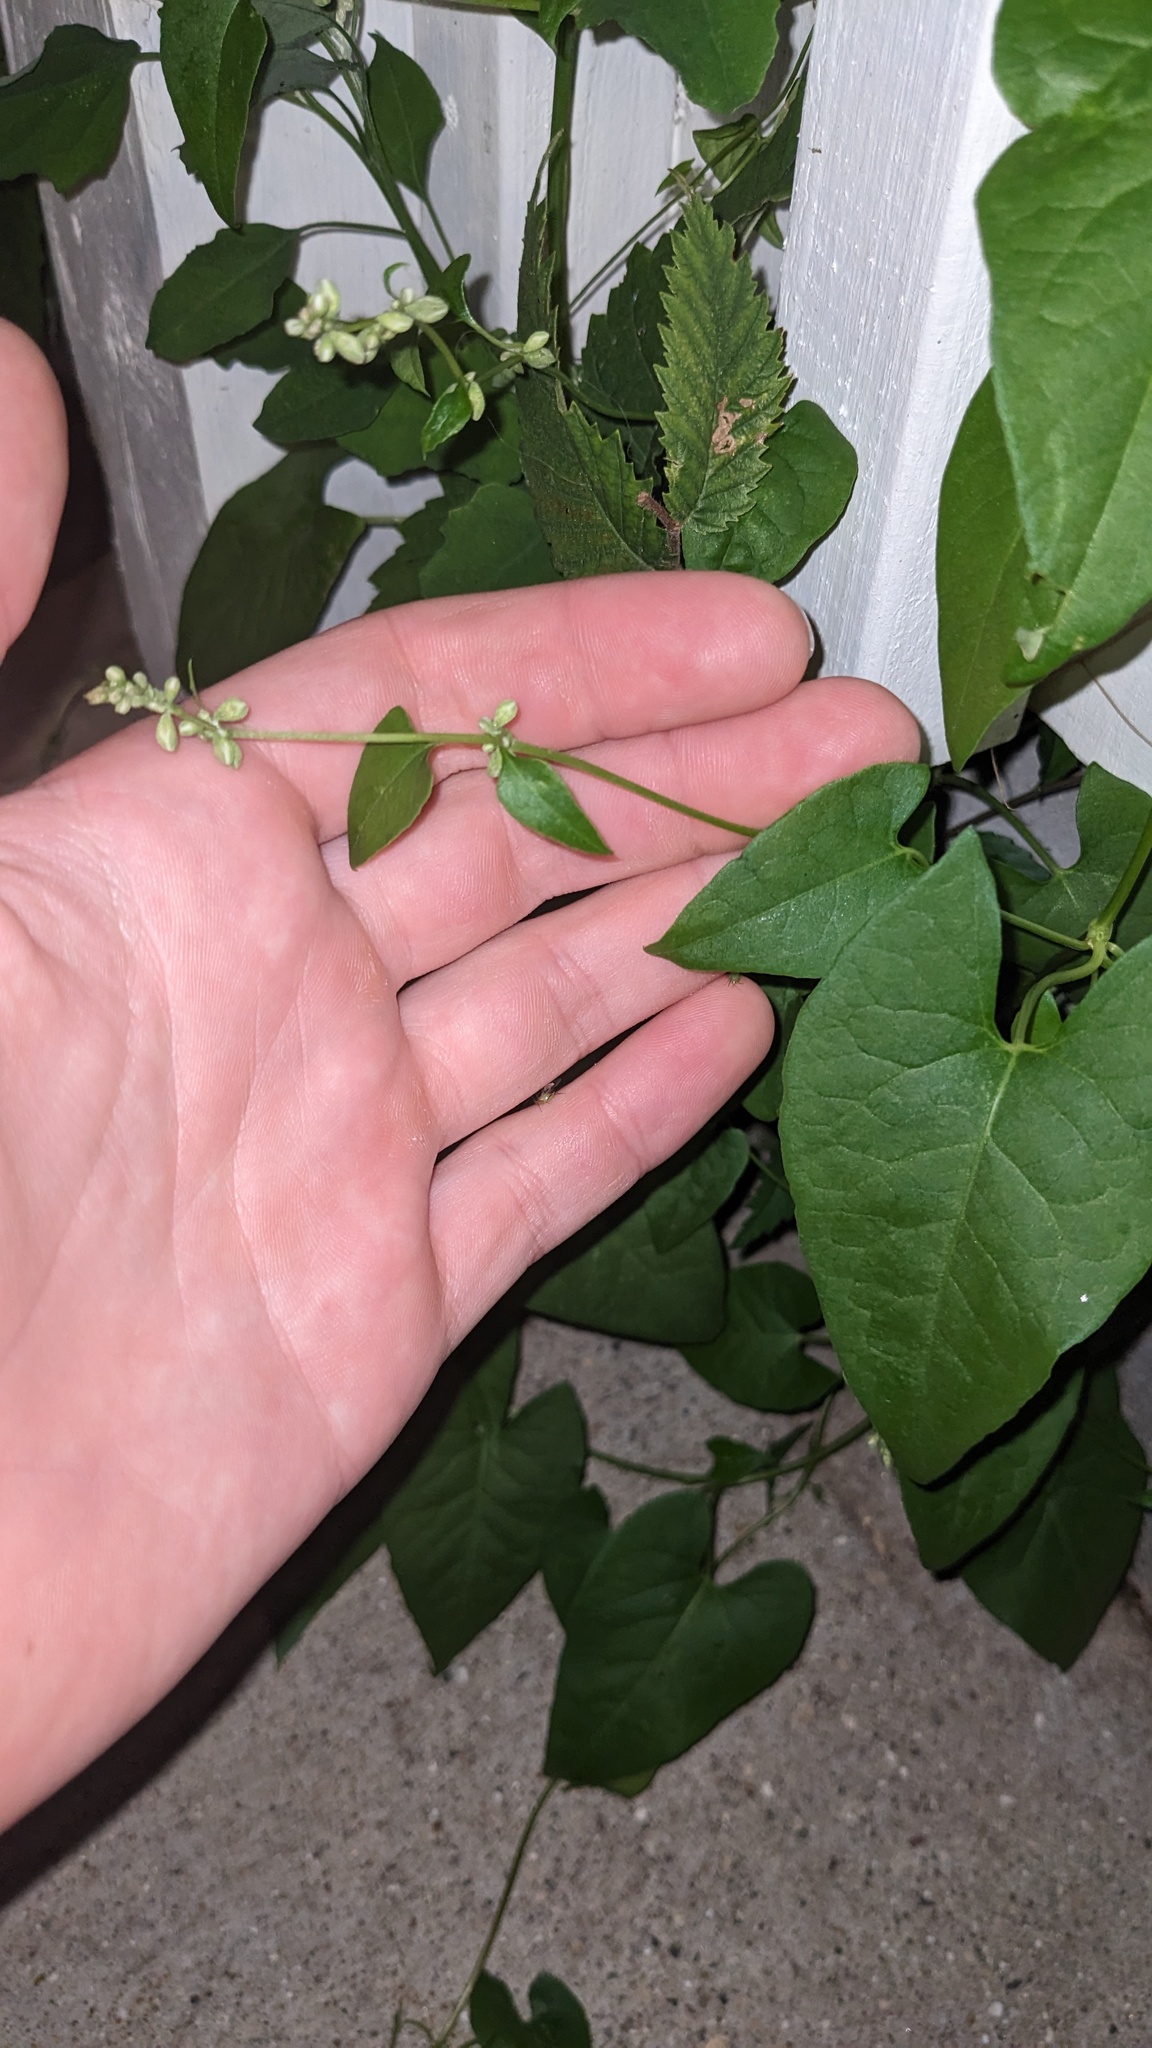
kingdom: Plantae
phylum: Tracheophyta
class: Magnoliopsida
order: Caryophyllales
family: Polygonaceae
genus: Fallopia
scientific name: Fallopia convolvulus
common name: Black bindweed
